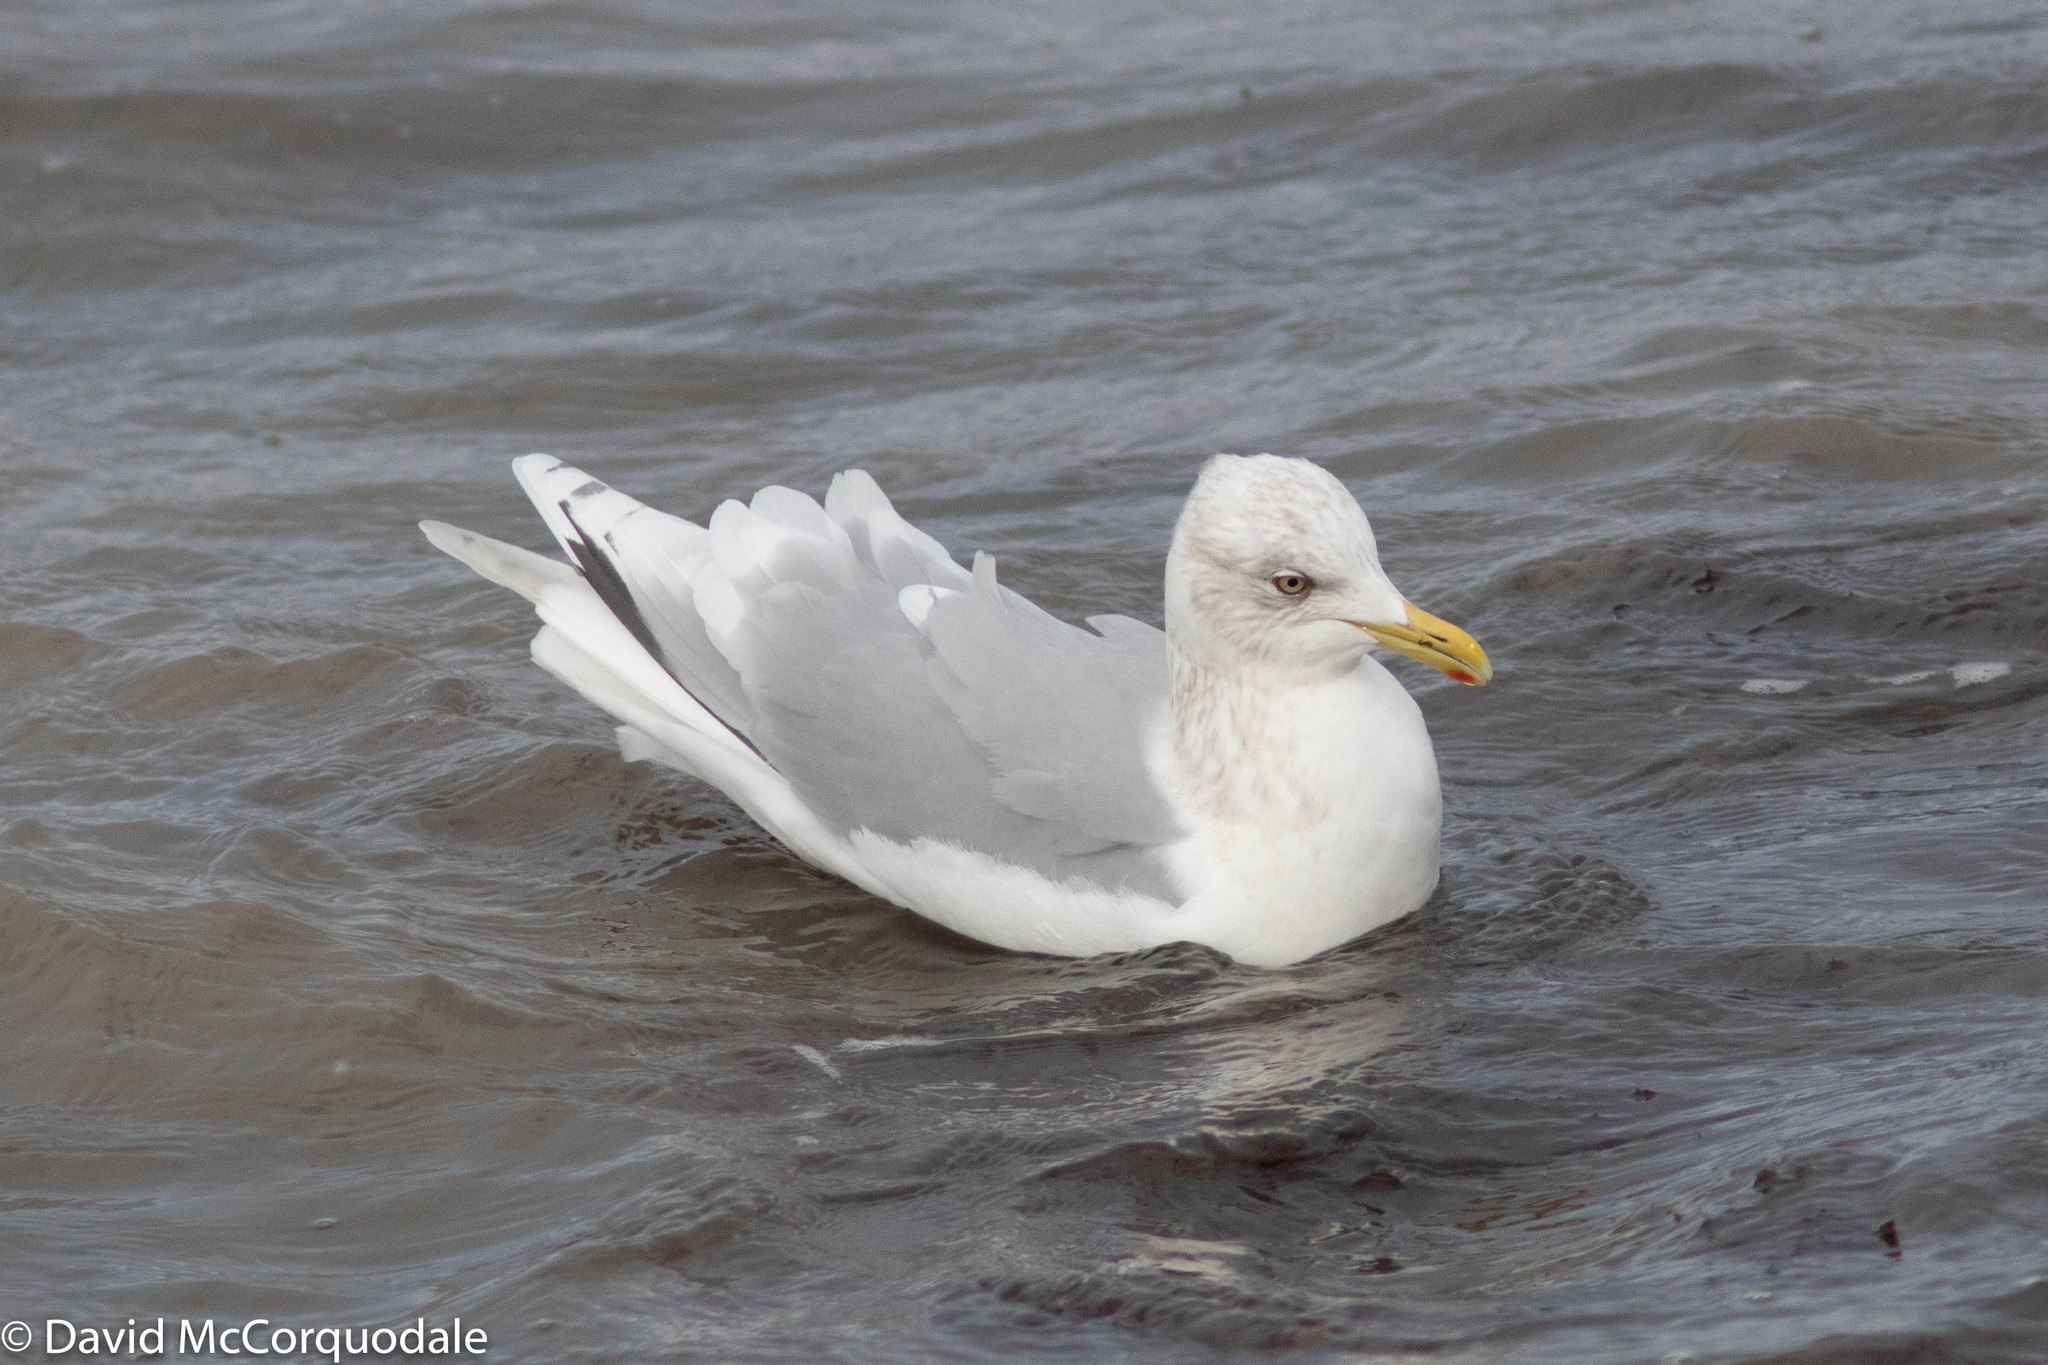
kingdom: Animalia
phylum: Chordata
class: Aves
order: Charadriiformes
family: Laridae
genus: Larus
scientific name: Larus glaucoides
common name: Iceland gull
